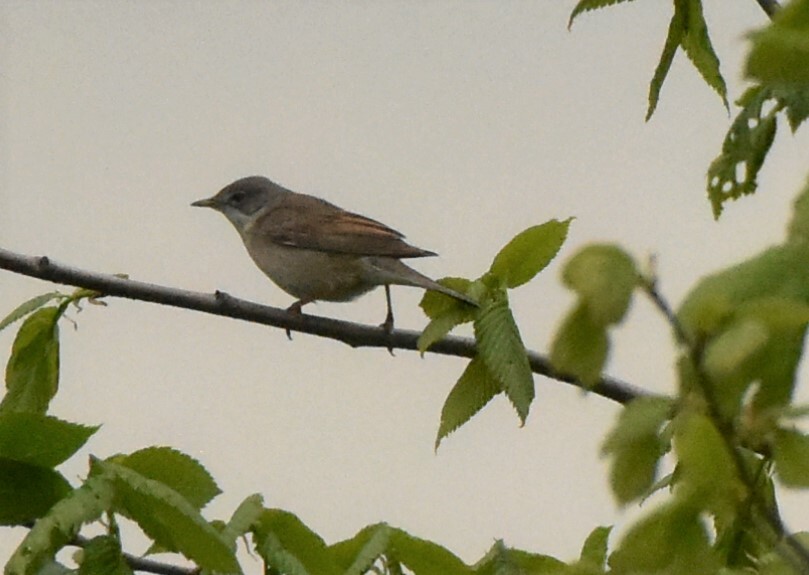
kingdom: Animalia
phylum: Chordata
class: Aves
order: Passeriformes
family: Sylviidae
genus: Sylvia
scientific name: Sylvia communis
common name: Common whitethroat
